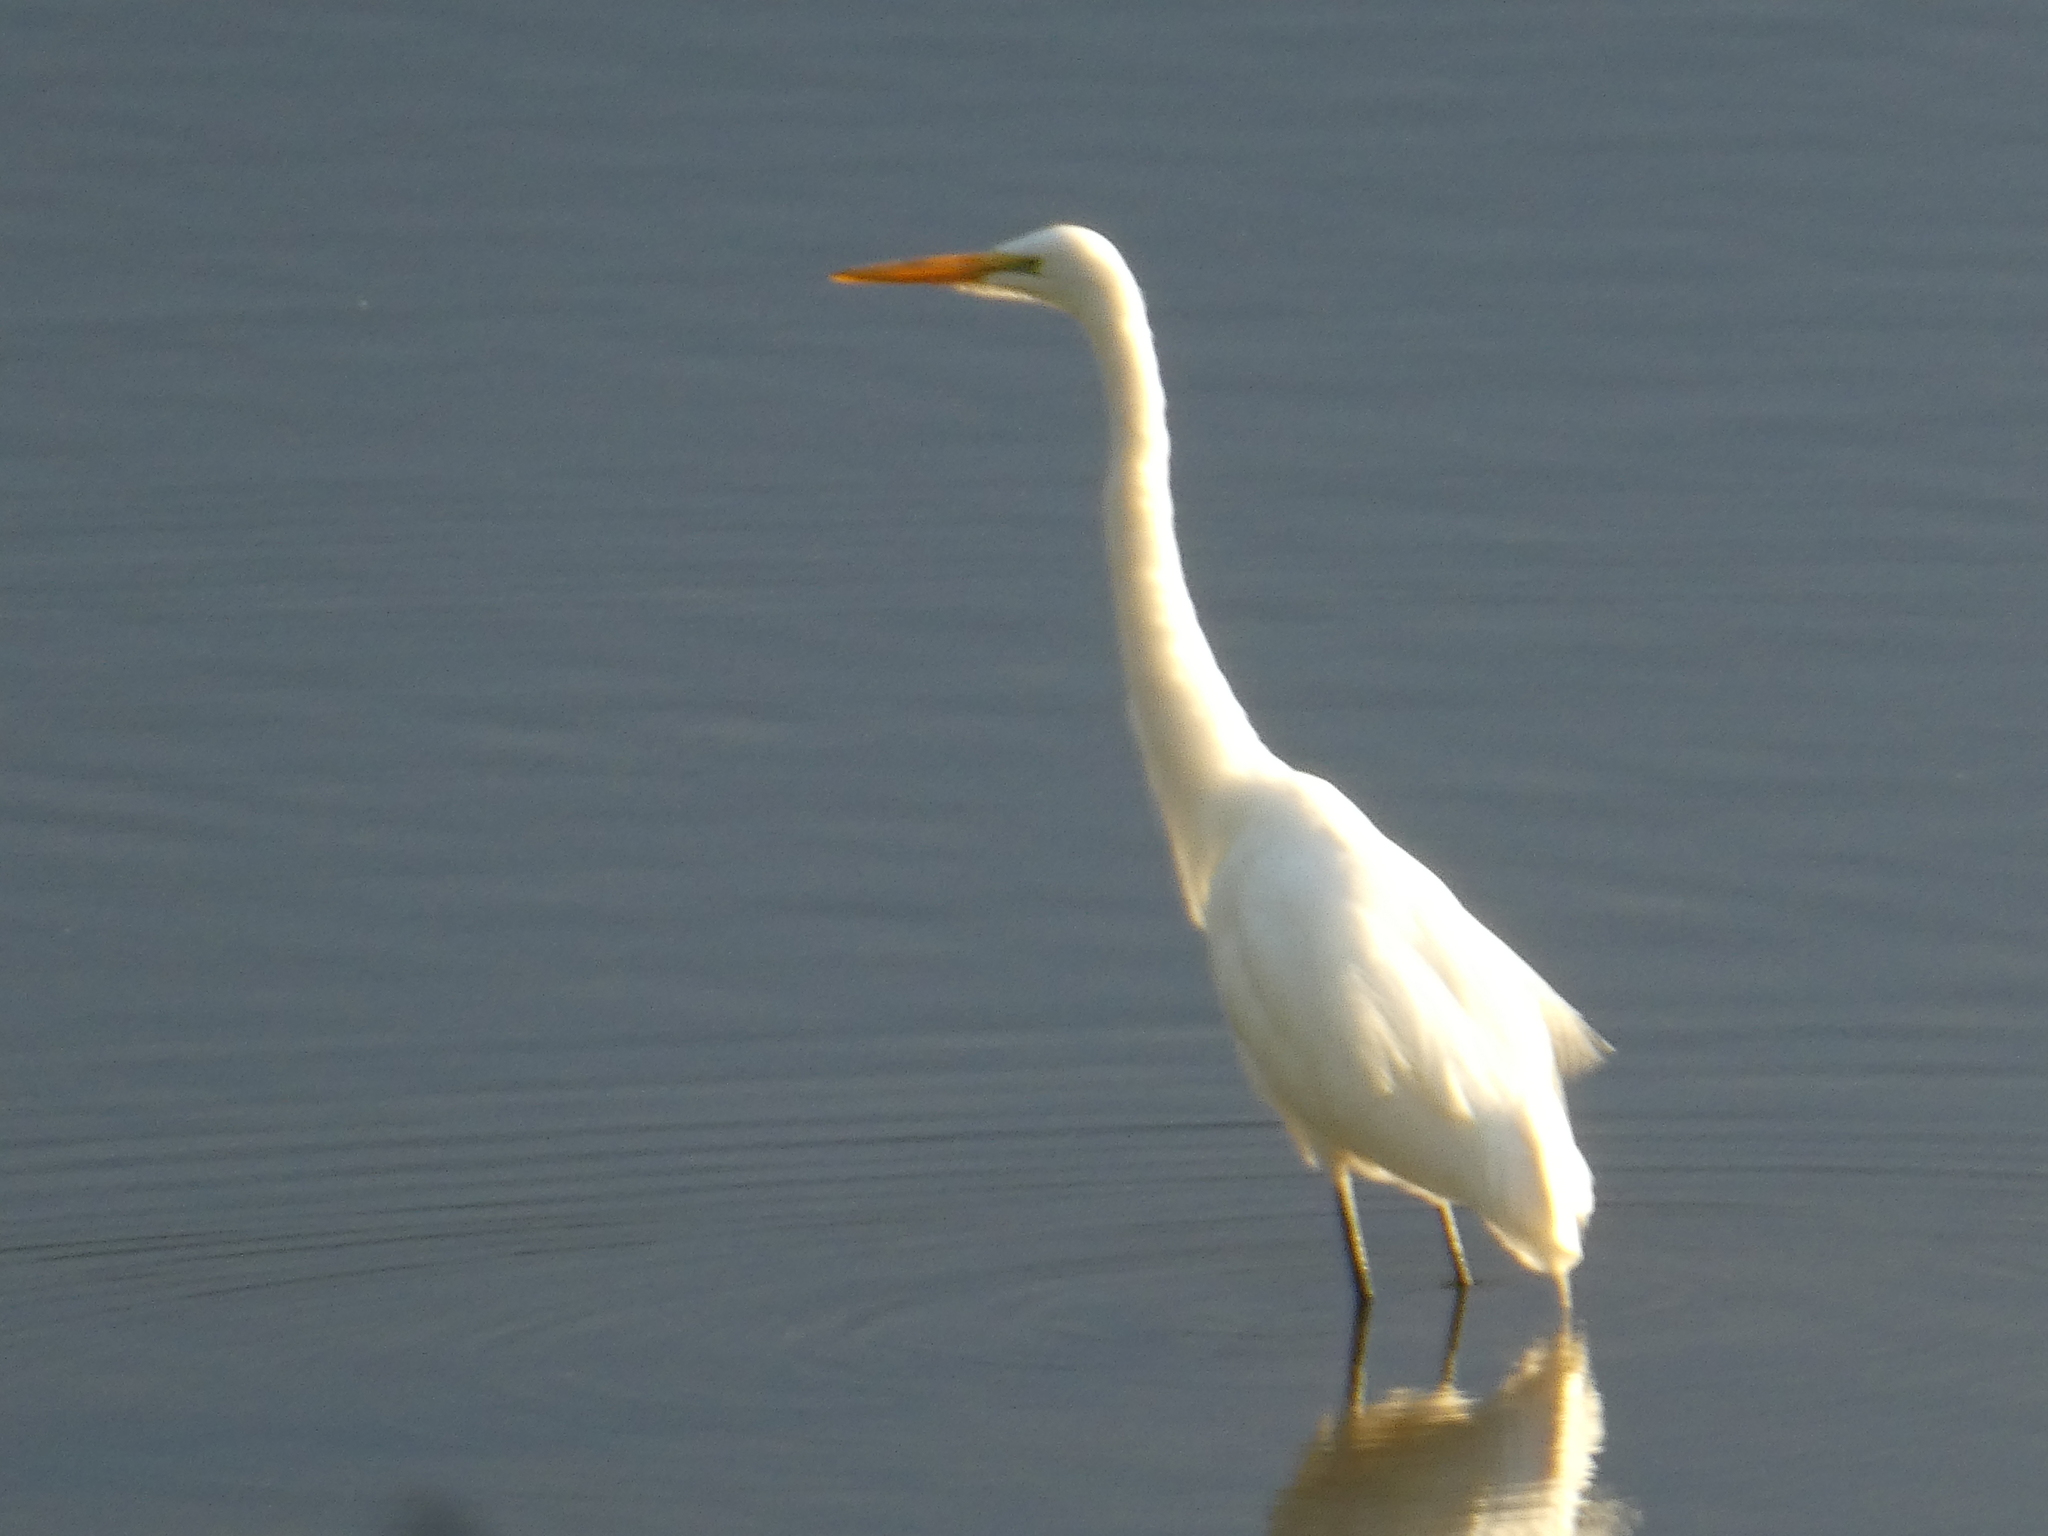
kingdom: Animalia
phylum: Chordata
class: Aves
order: Pelecaniformes
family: Ardeidae
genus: Ardea
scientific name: Ardea alba
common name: Great egret
